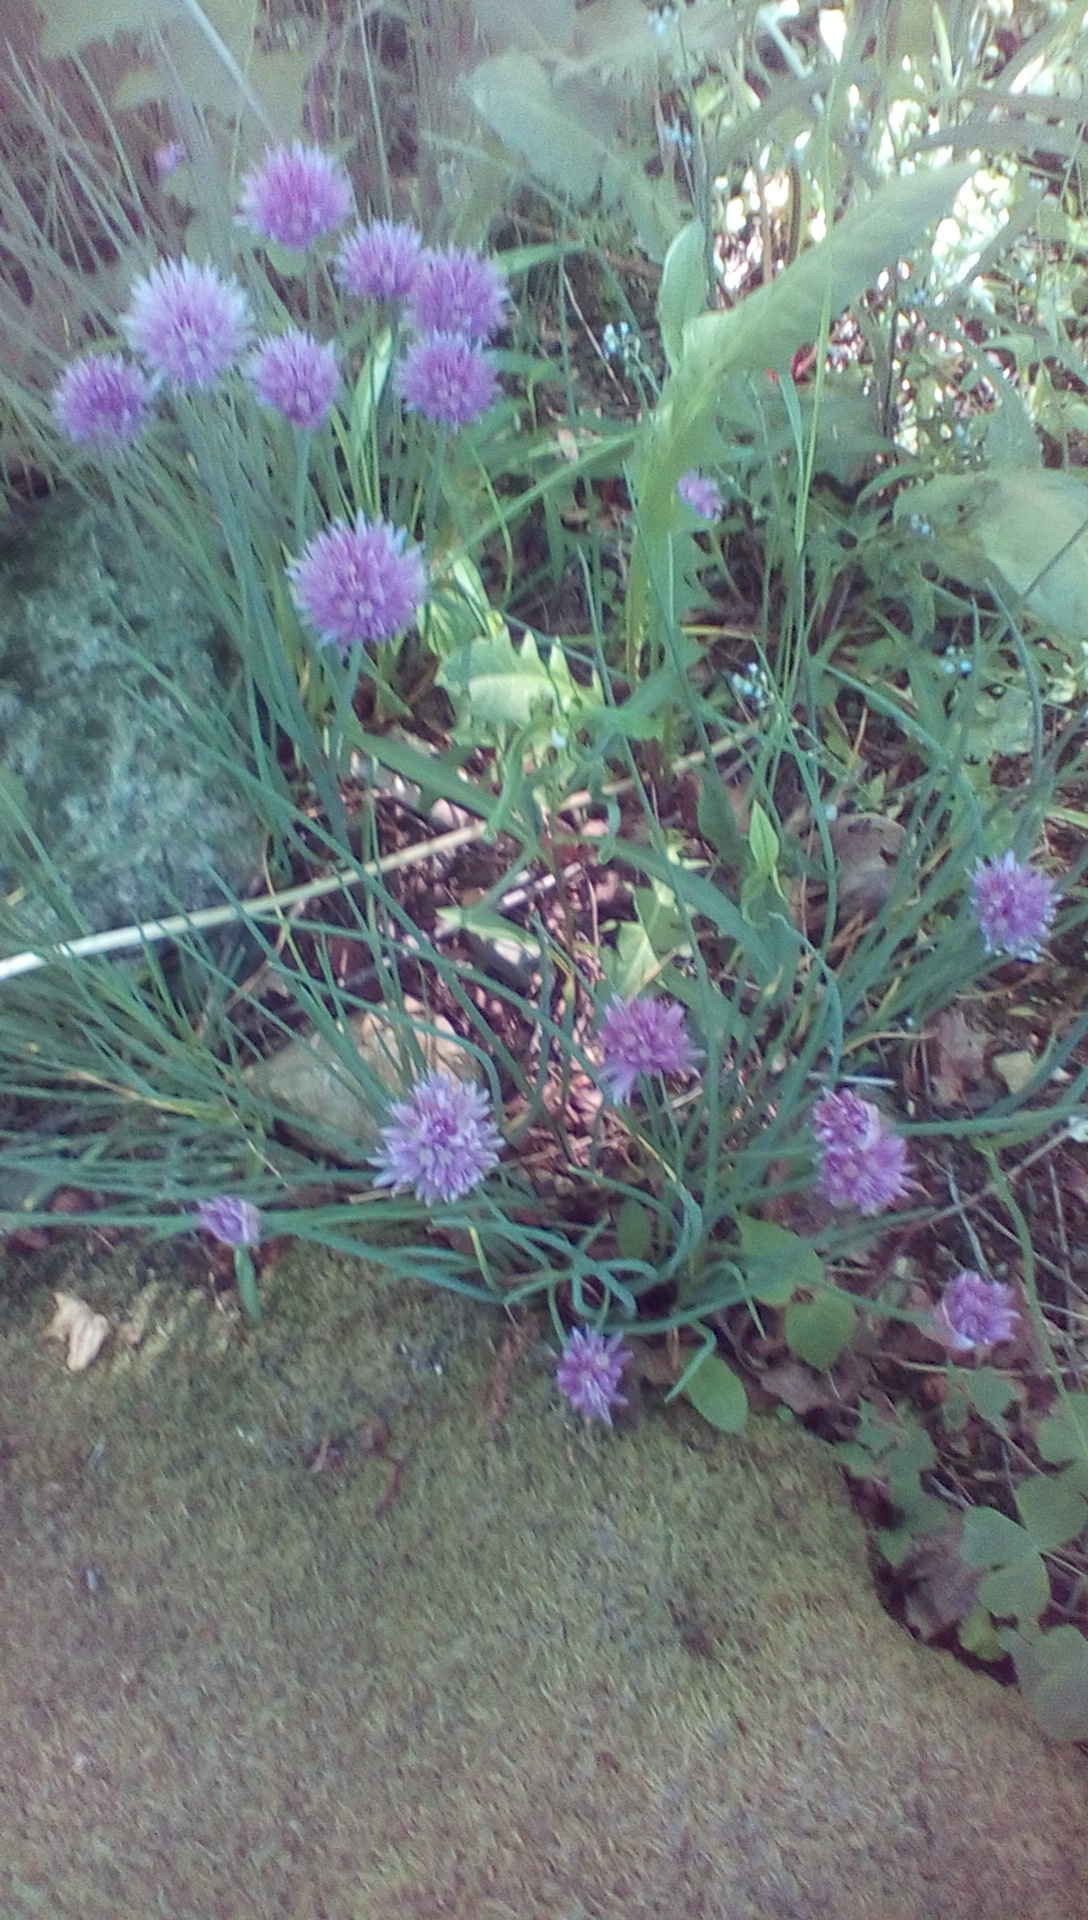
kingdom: Plantae
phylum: Tracheophyta
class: Liliopsida
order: Asparagales
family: Amaryllidaceae
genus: Allium
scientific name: Allium schoenoprasum
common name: Chives
